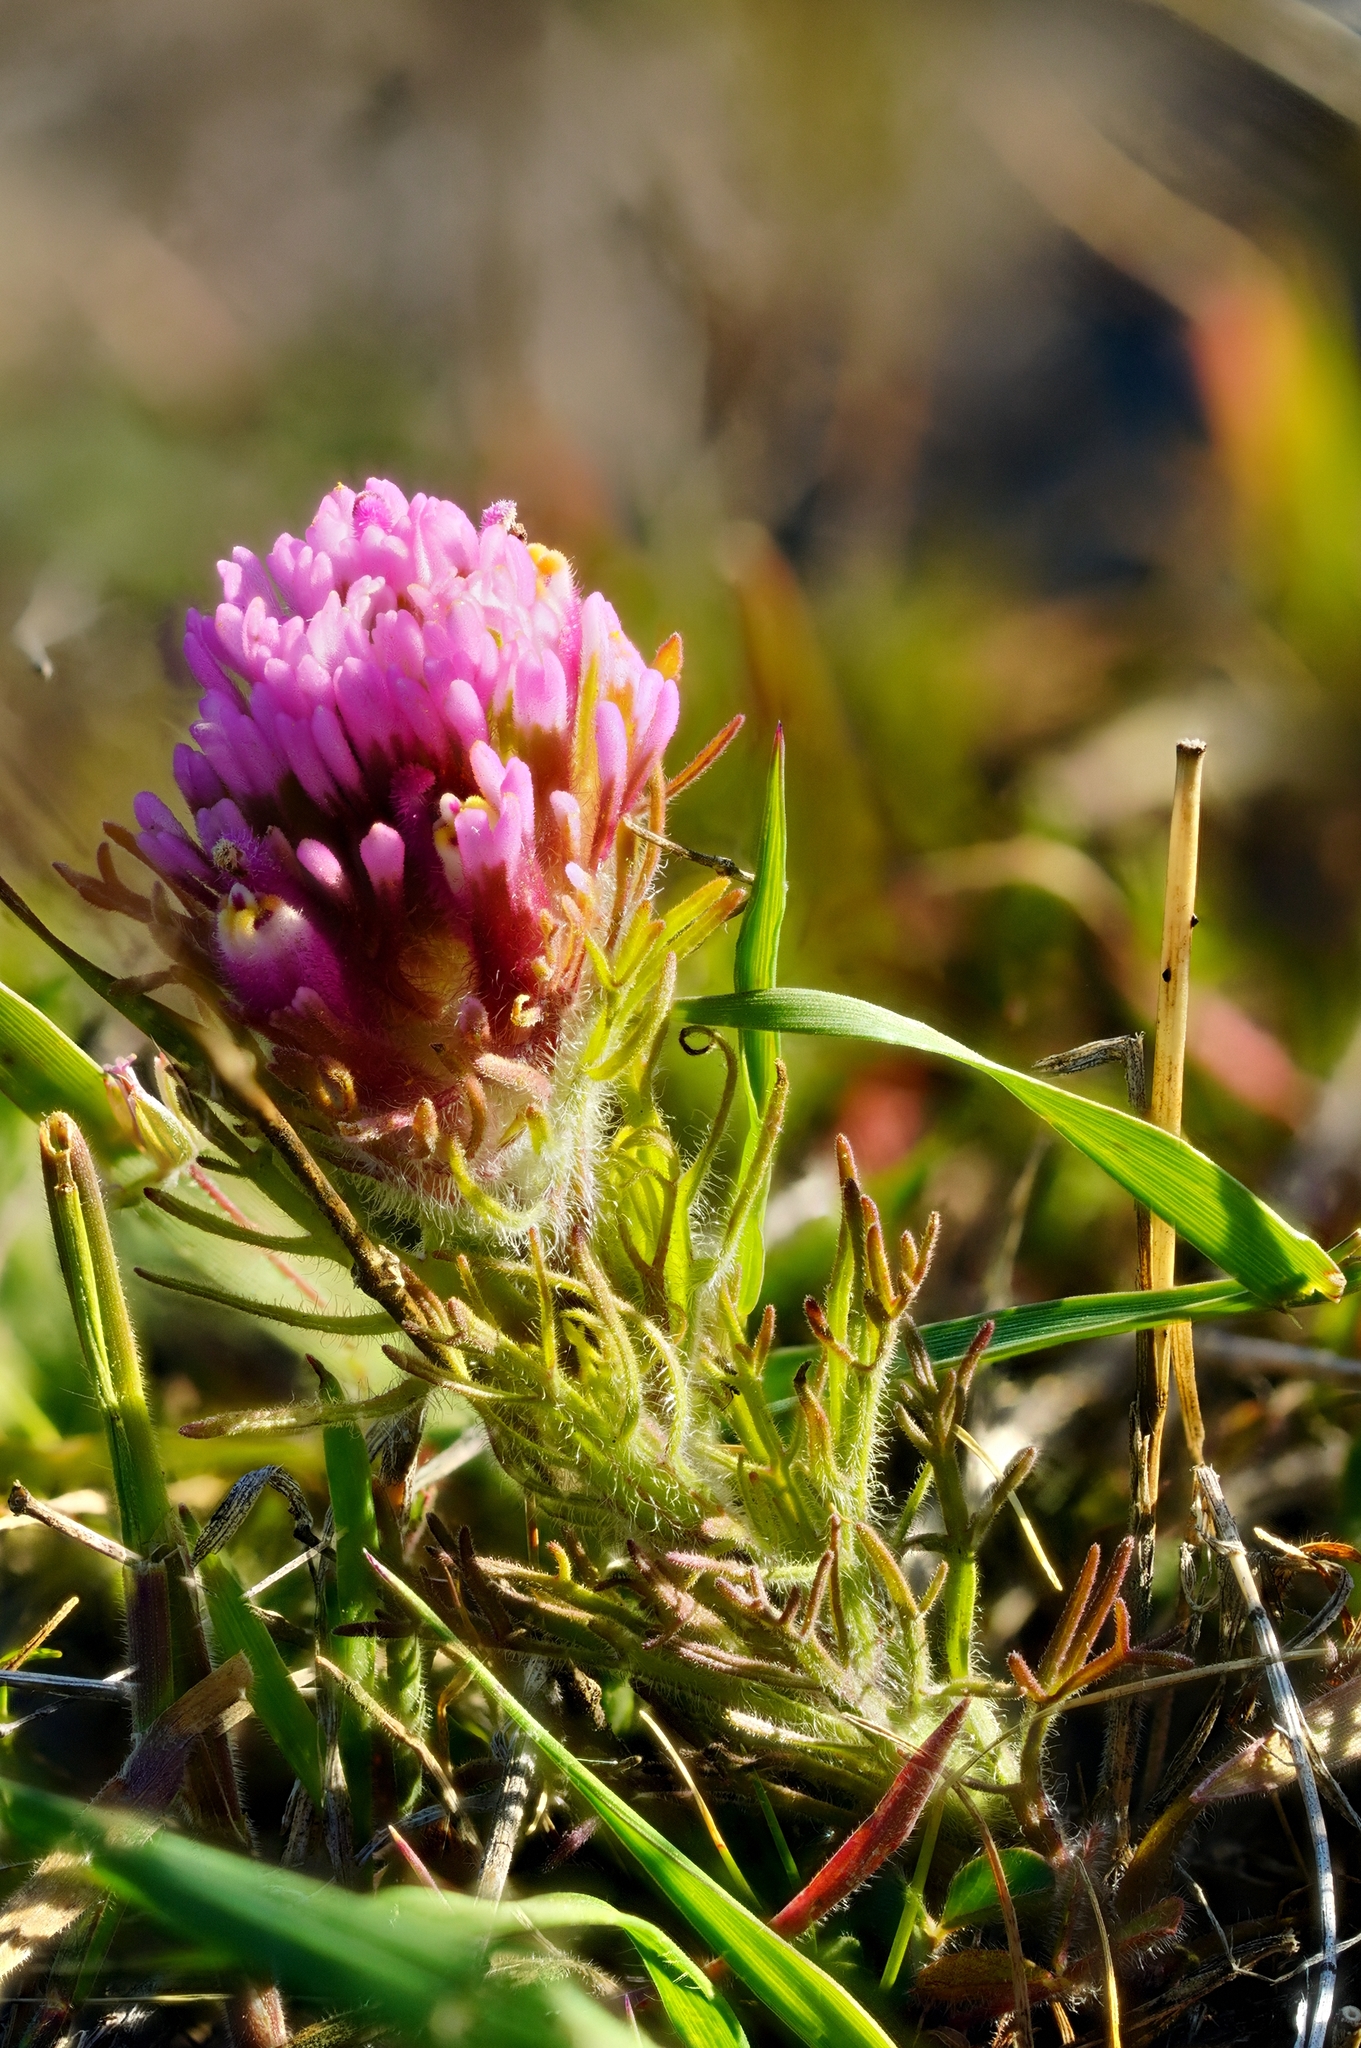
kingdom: Plantae
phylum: Tracheophyta
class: Magnoliopsida
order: Lamiales
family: Orobanchaceae
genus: Castilleja
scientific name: Castilleja exserta
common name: Purple owl-clover
